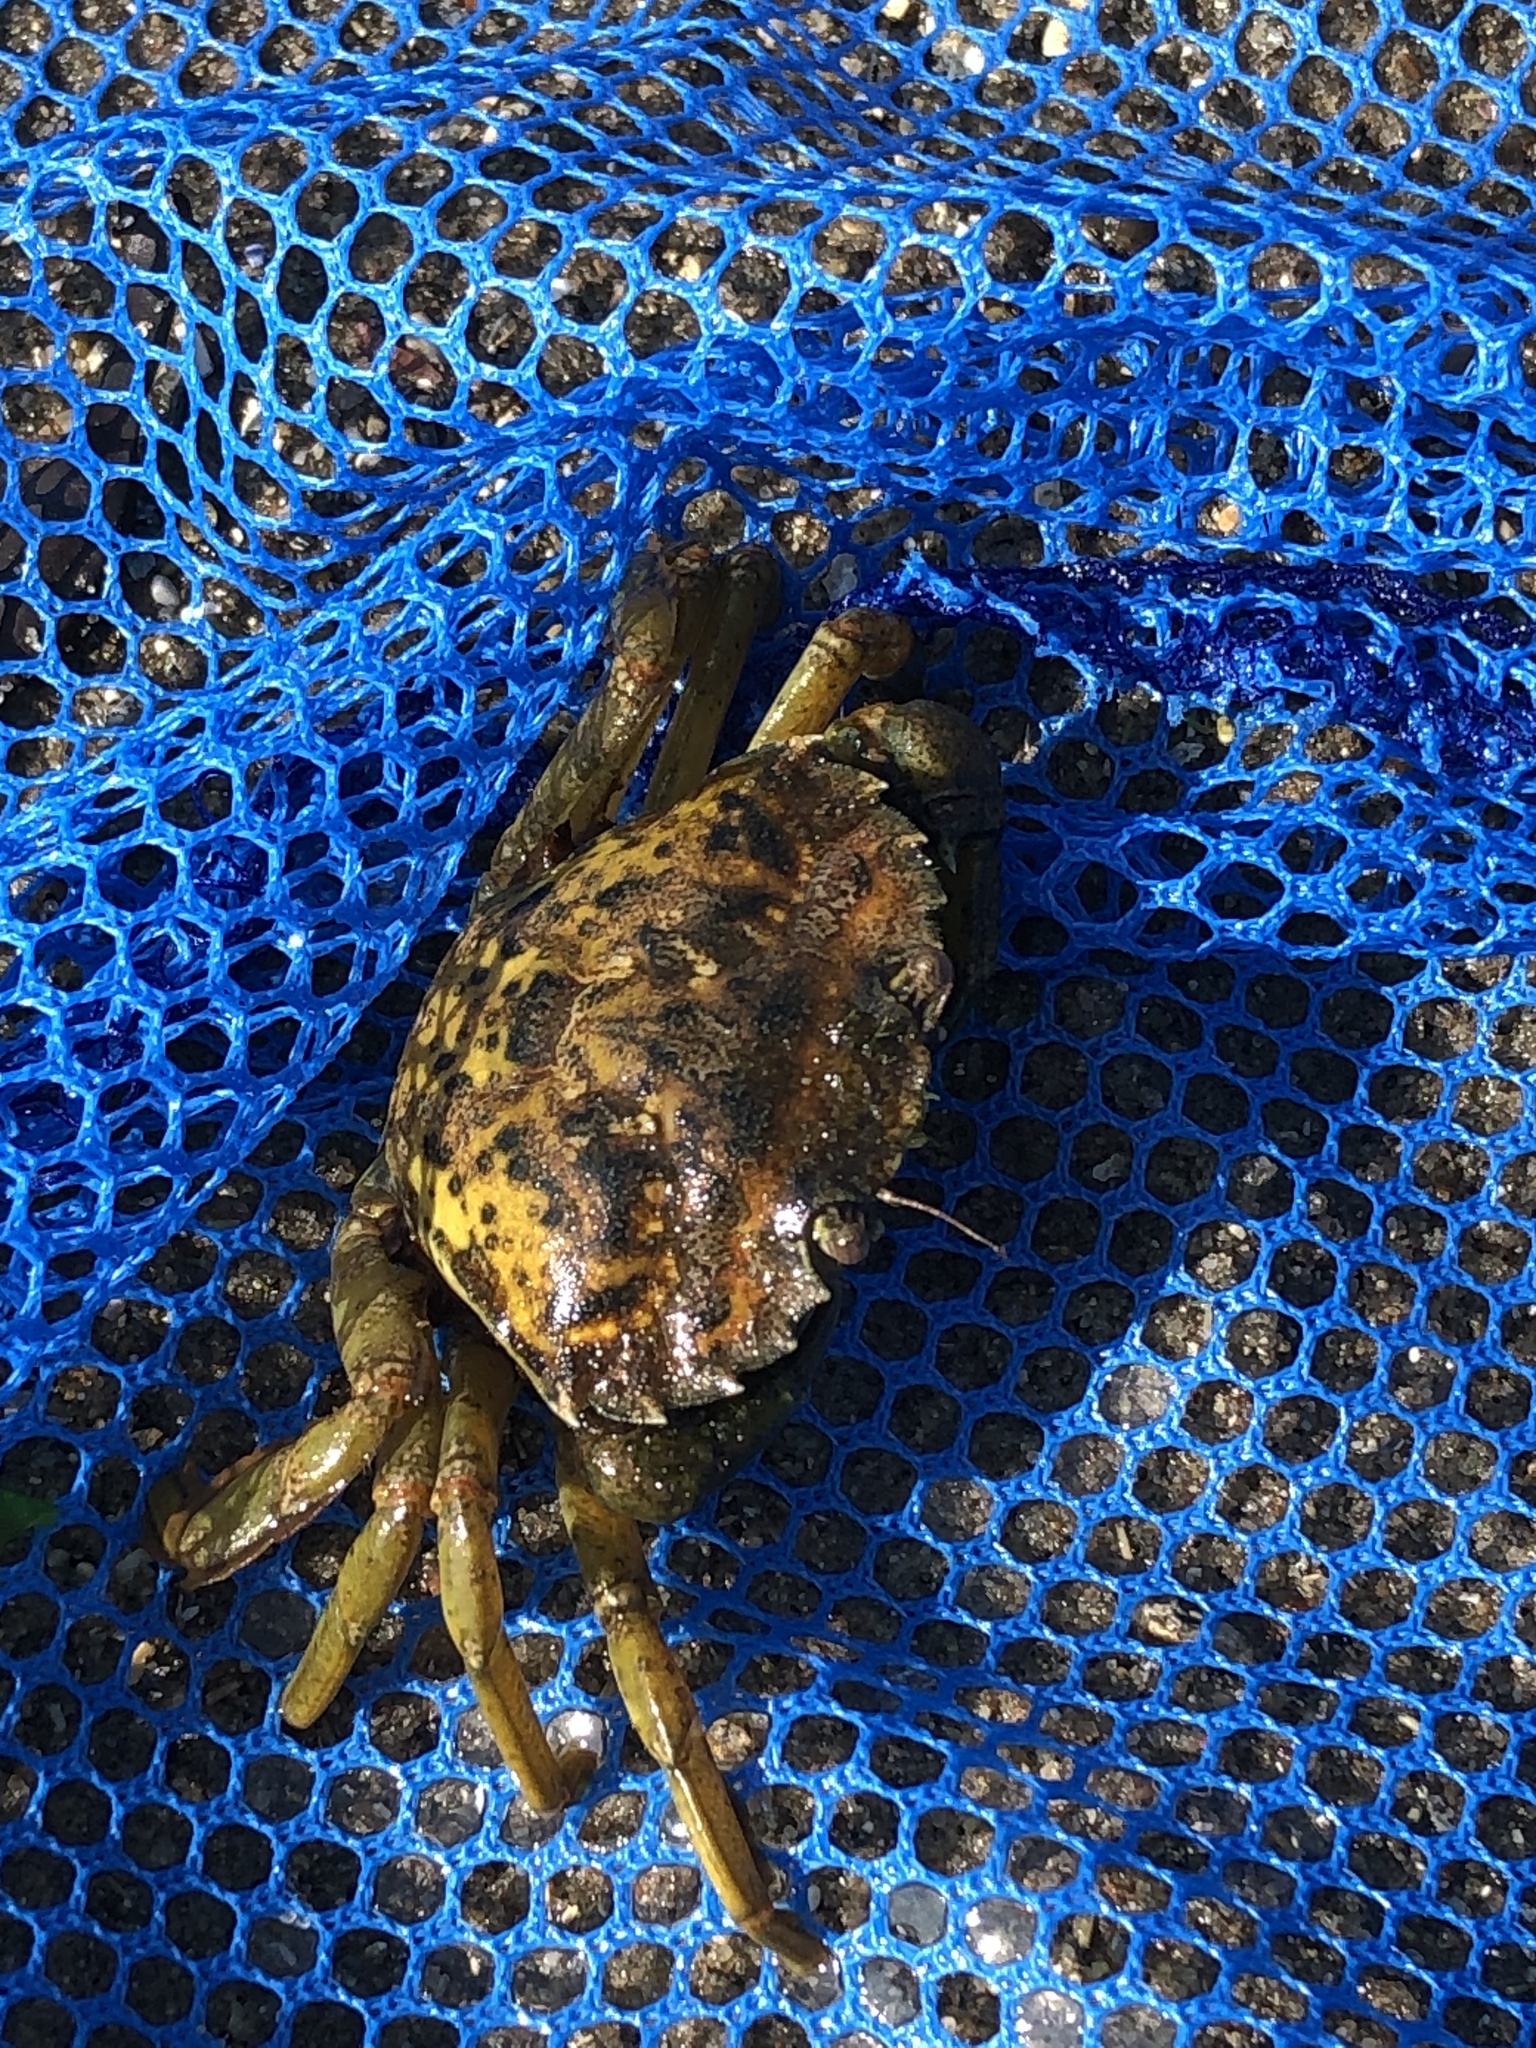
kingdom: Animalia
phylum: Arthropoda
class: Malacostraca
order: Decapoda
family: Carcinidae
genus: Carcinus
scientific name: Carcinus maenas
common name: European green crab
